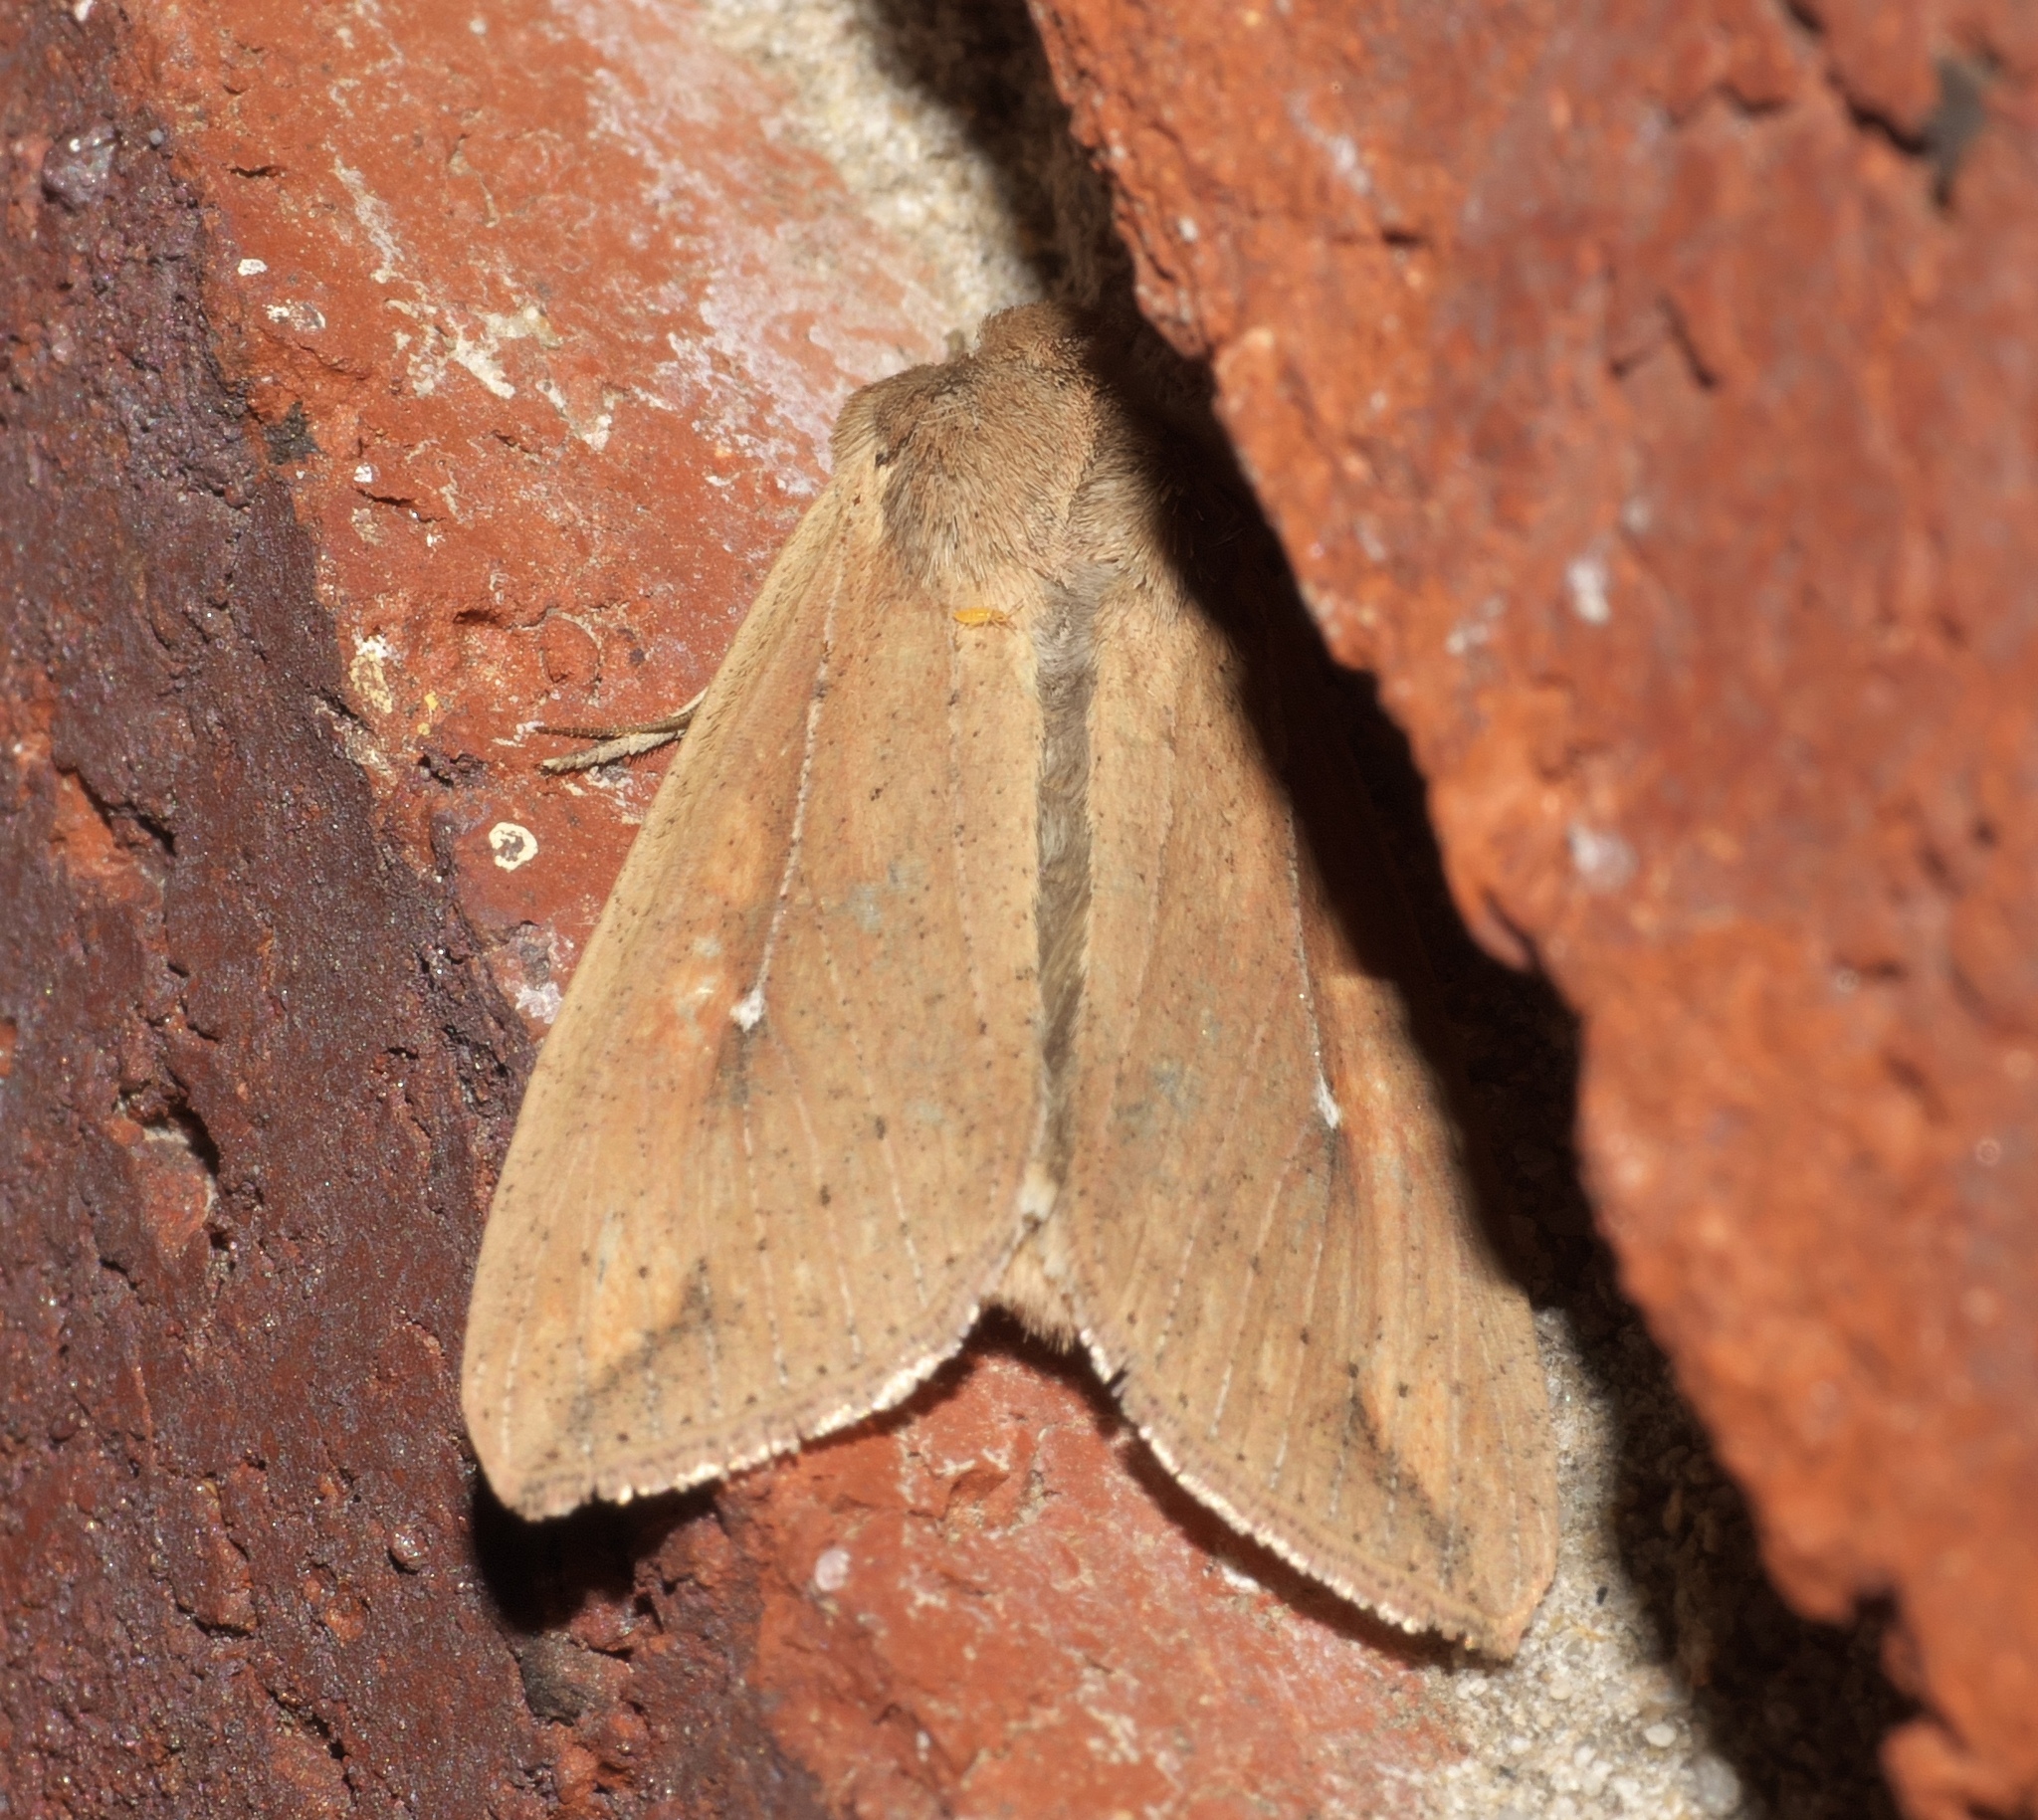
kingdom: Animalia
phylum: Arthropoda
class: Insecta
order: Lepidoptera
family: Noctuidae
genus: Mythimna
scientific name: Mythimna unipuncta
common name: White-speck
